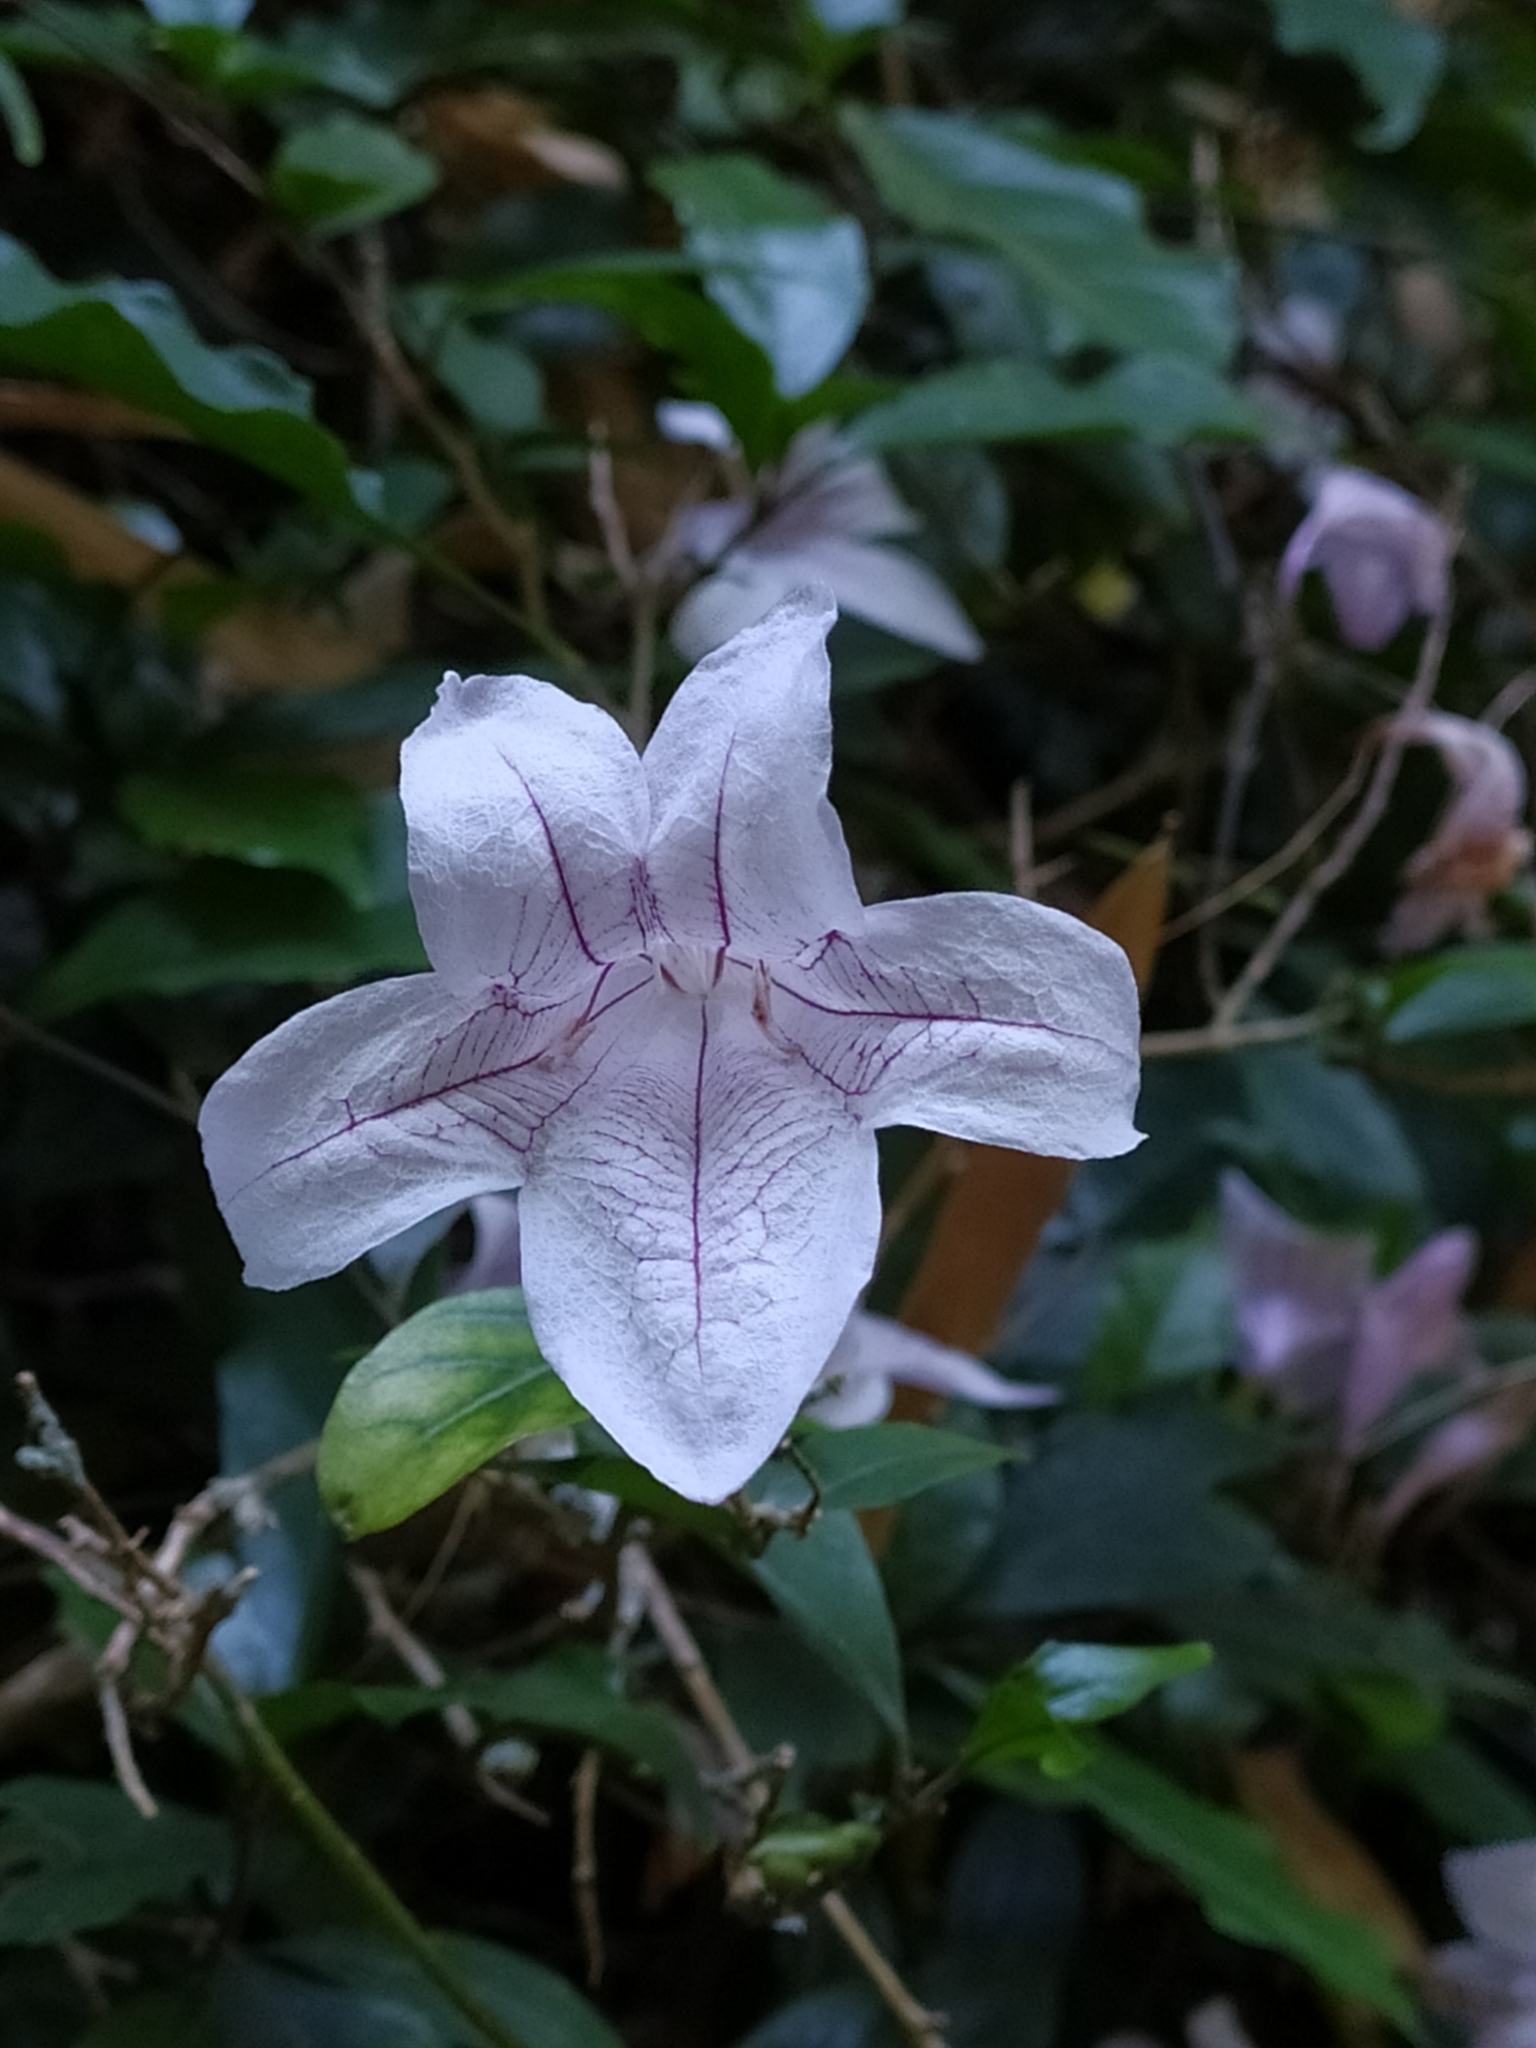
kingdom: Plantae
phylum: Tracheophyta
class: Magnoliopsida
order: Lamiales
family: Acanthaceae
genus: Mackaya
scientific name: Mackaya bella
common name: Forest bell-bush
